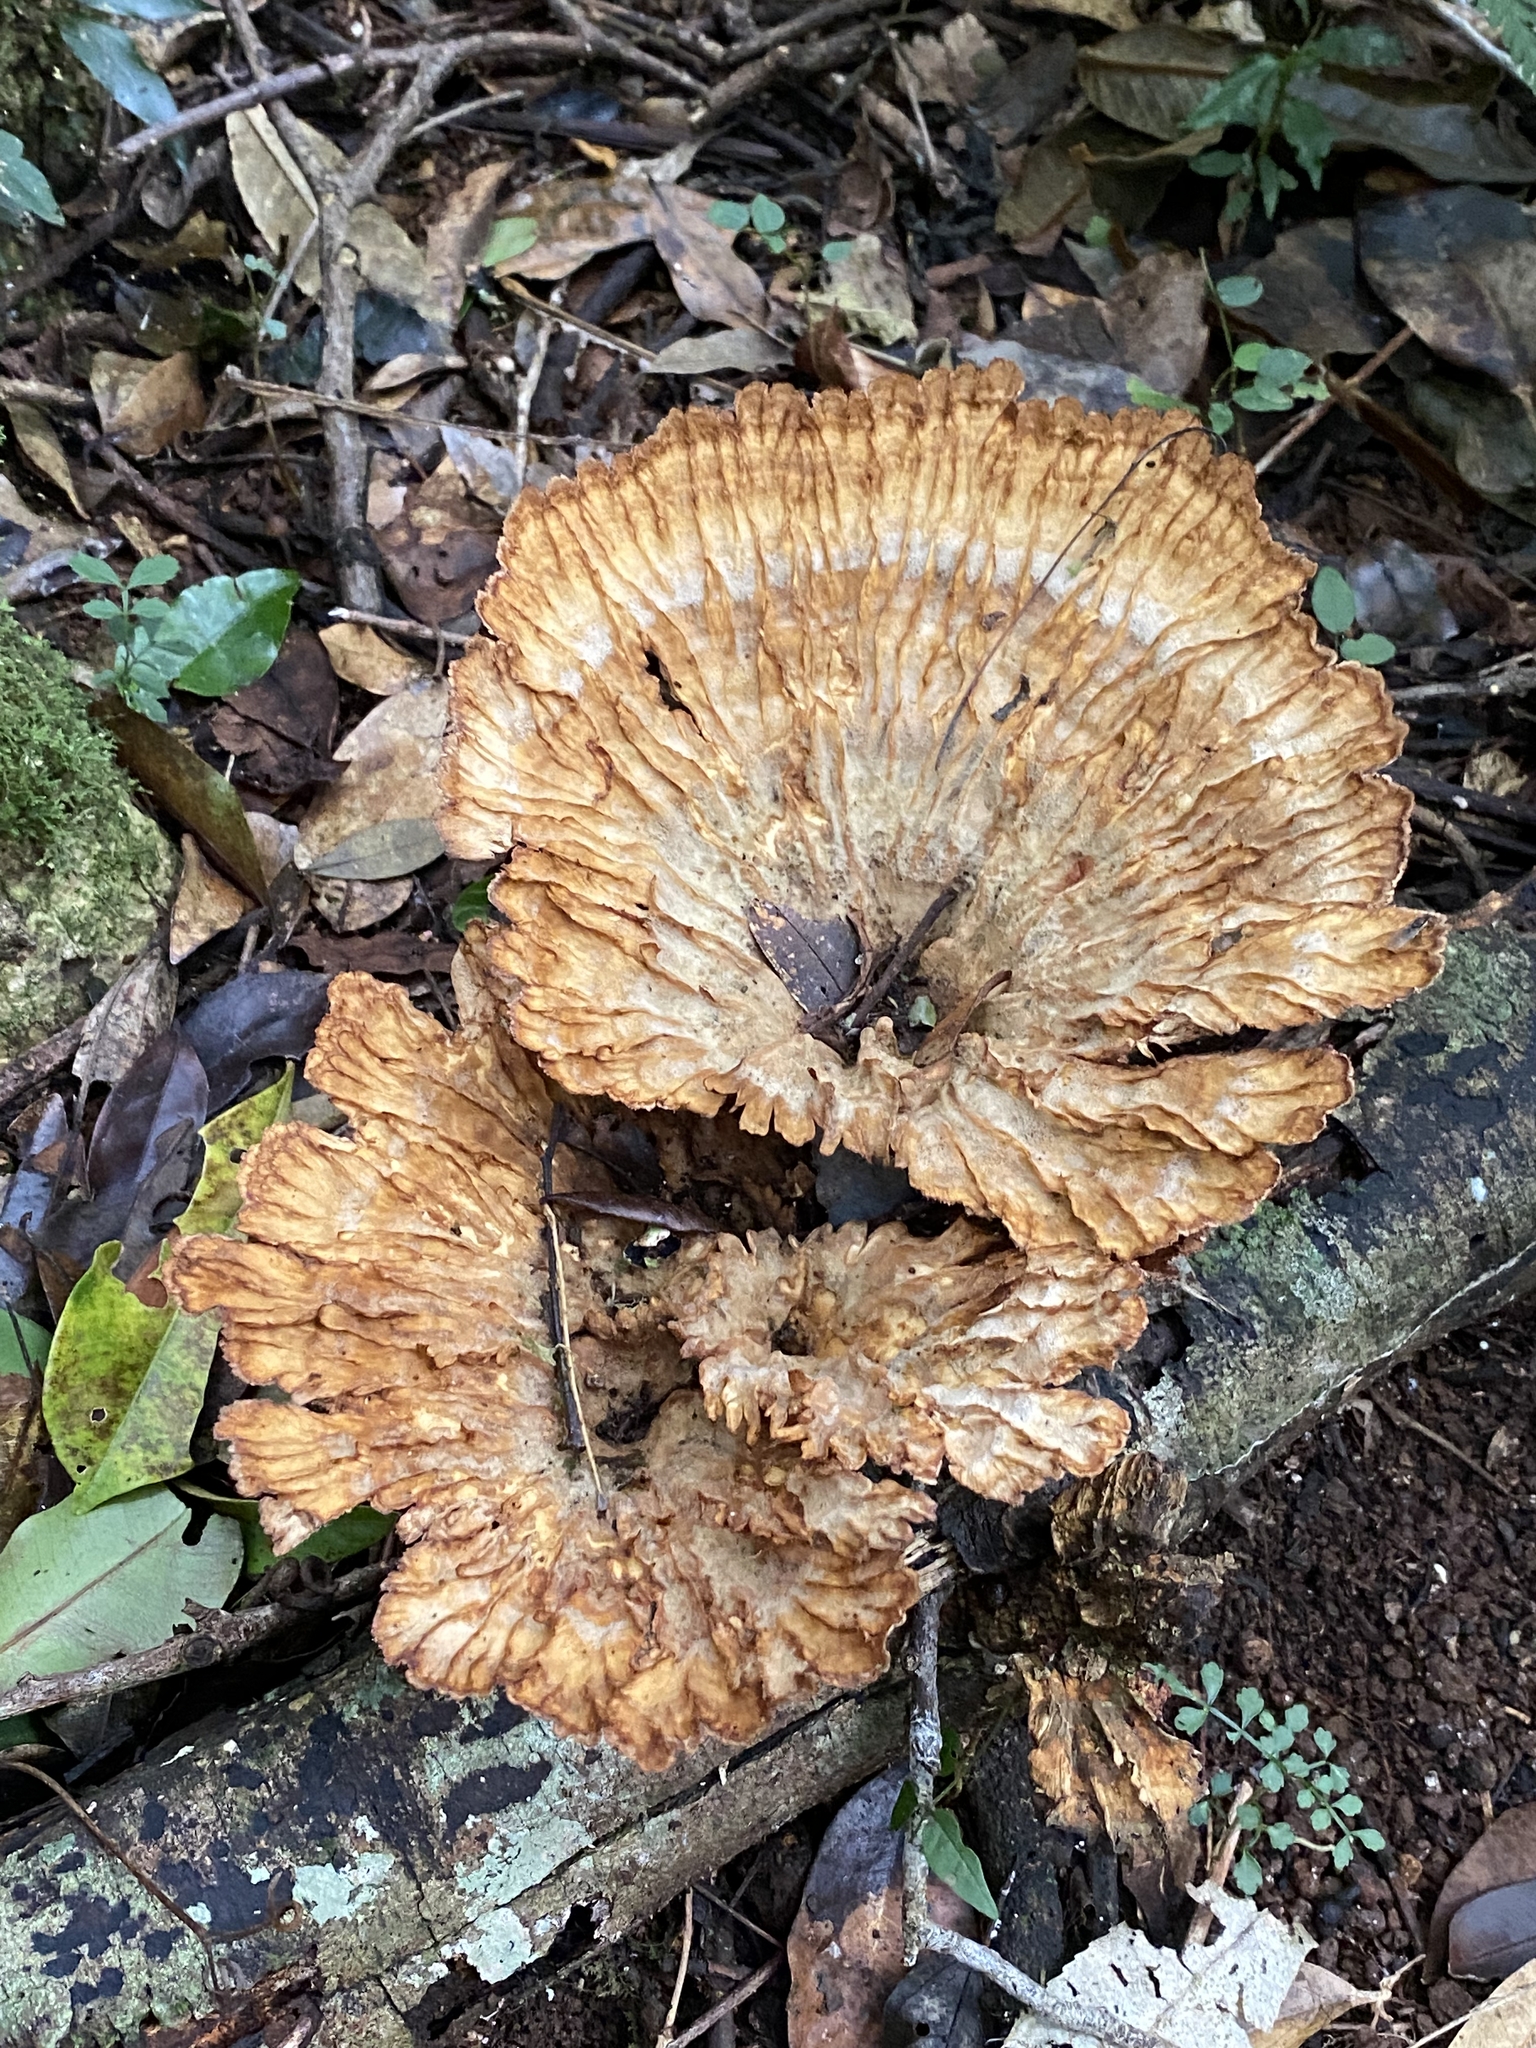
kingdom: Fungi
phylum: Basidiomycota
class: Agaricomycetes
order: Polyporales
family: Panaceae
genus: Cymatoderma
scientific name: Cymatoderma elegans
